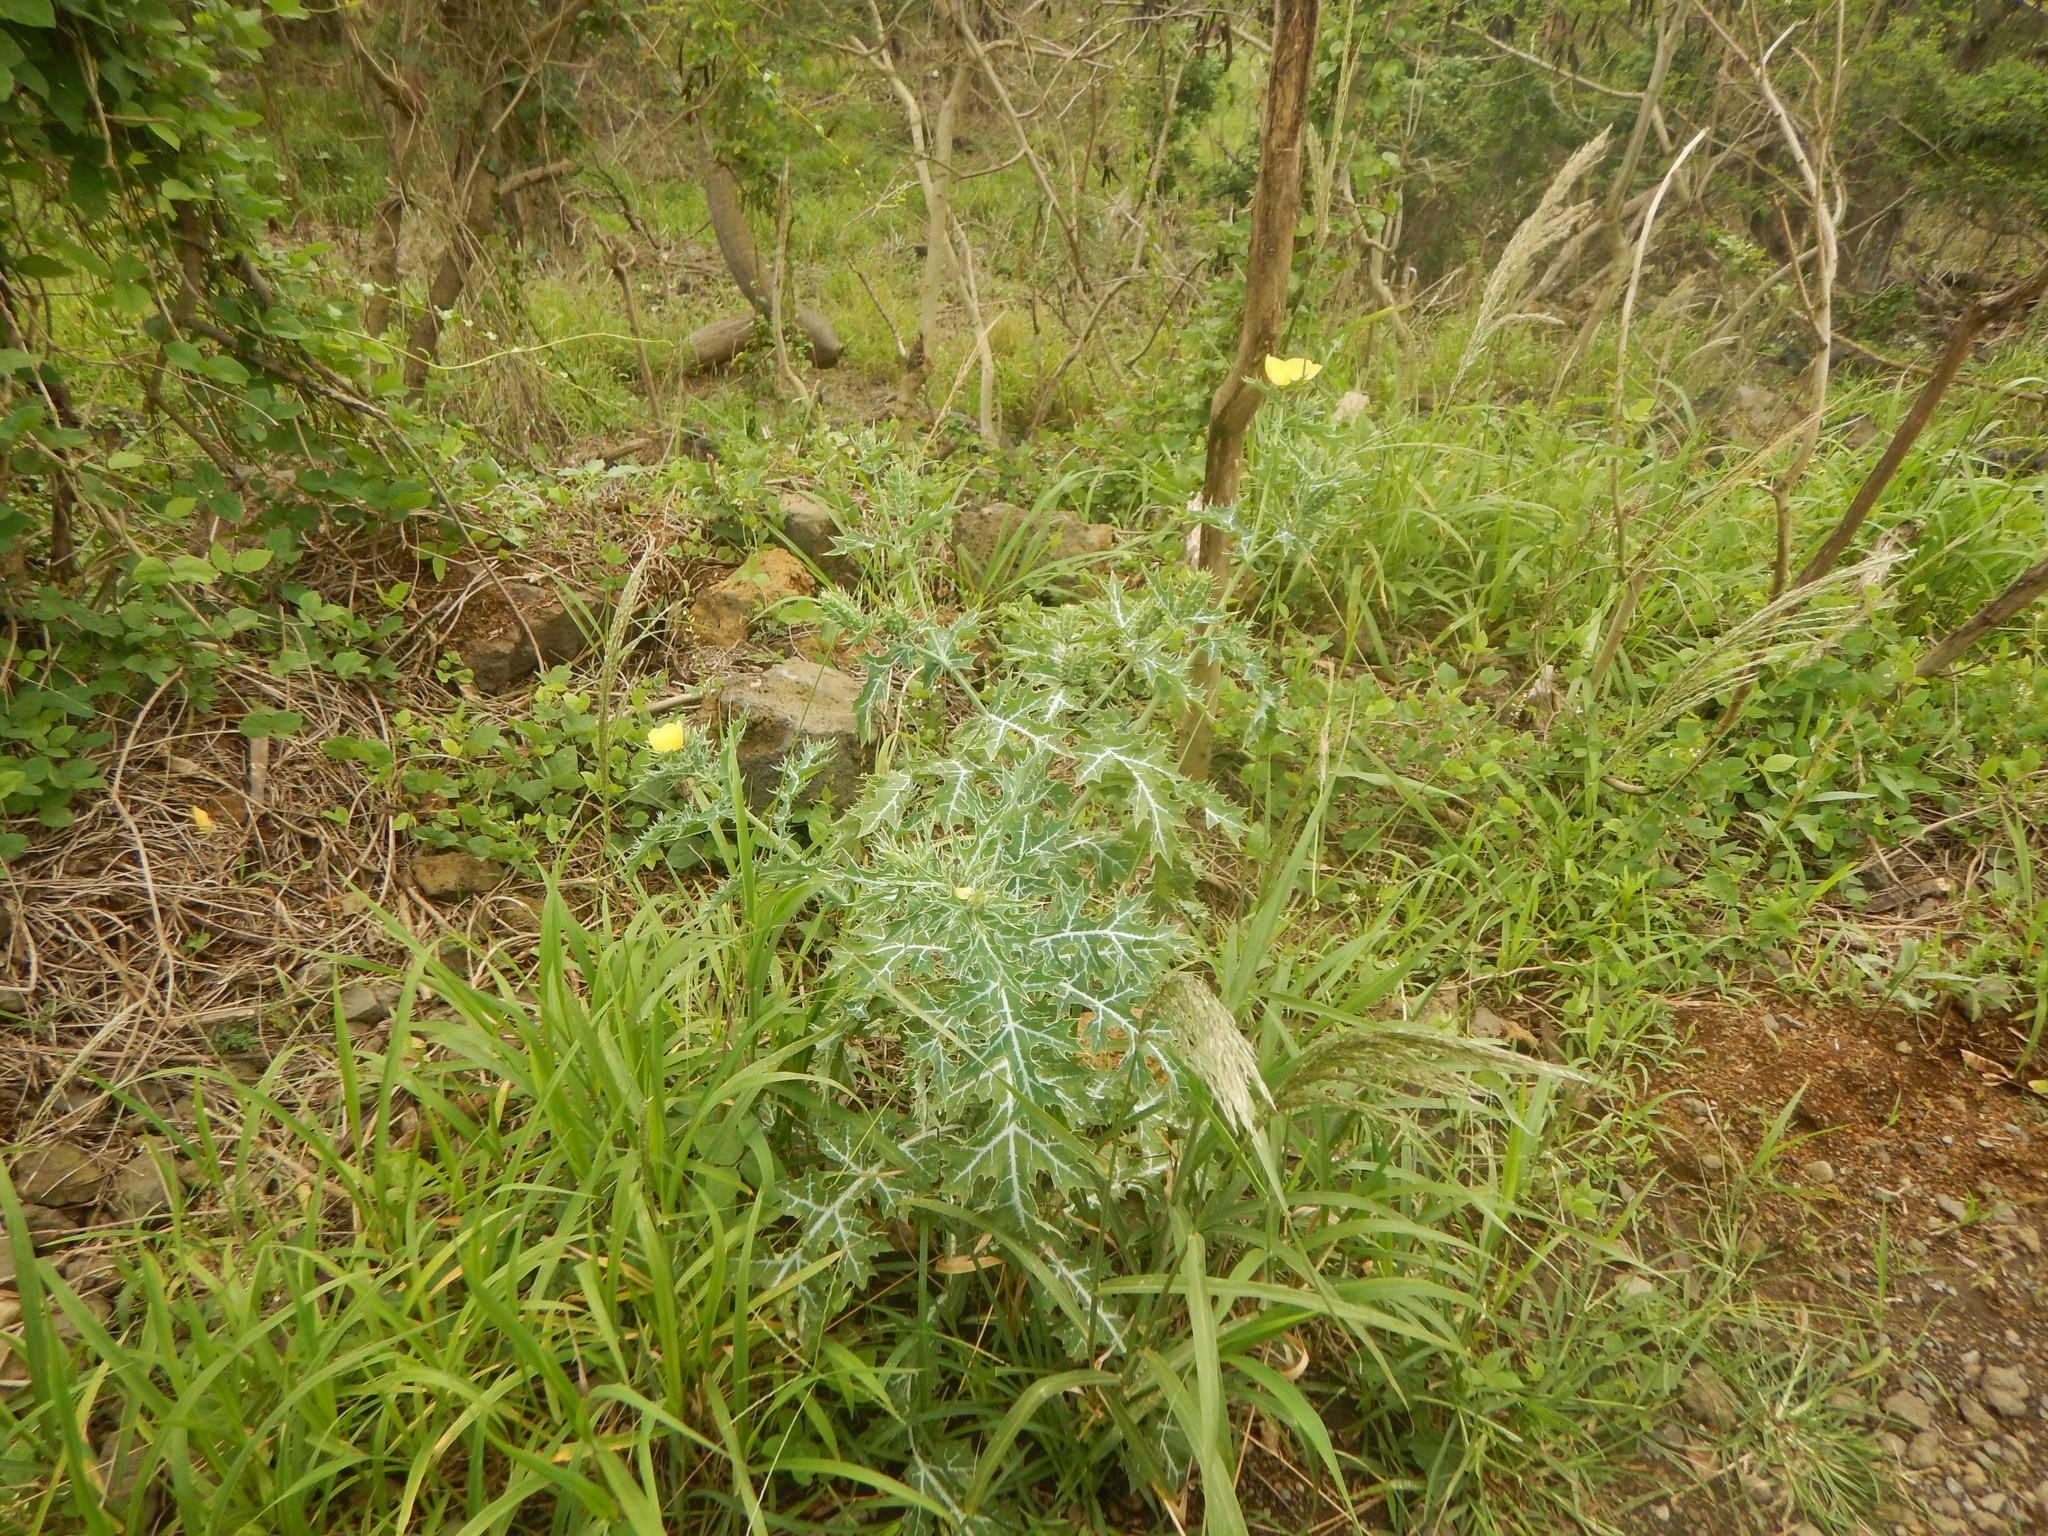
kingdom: Plantae
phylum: Tracheophyta
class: Magnoliopsida
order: Ranunculales
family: Papaveraceae
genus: Argemone
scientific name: Argemone mexicana
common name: Mexican poppy
